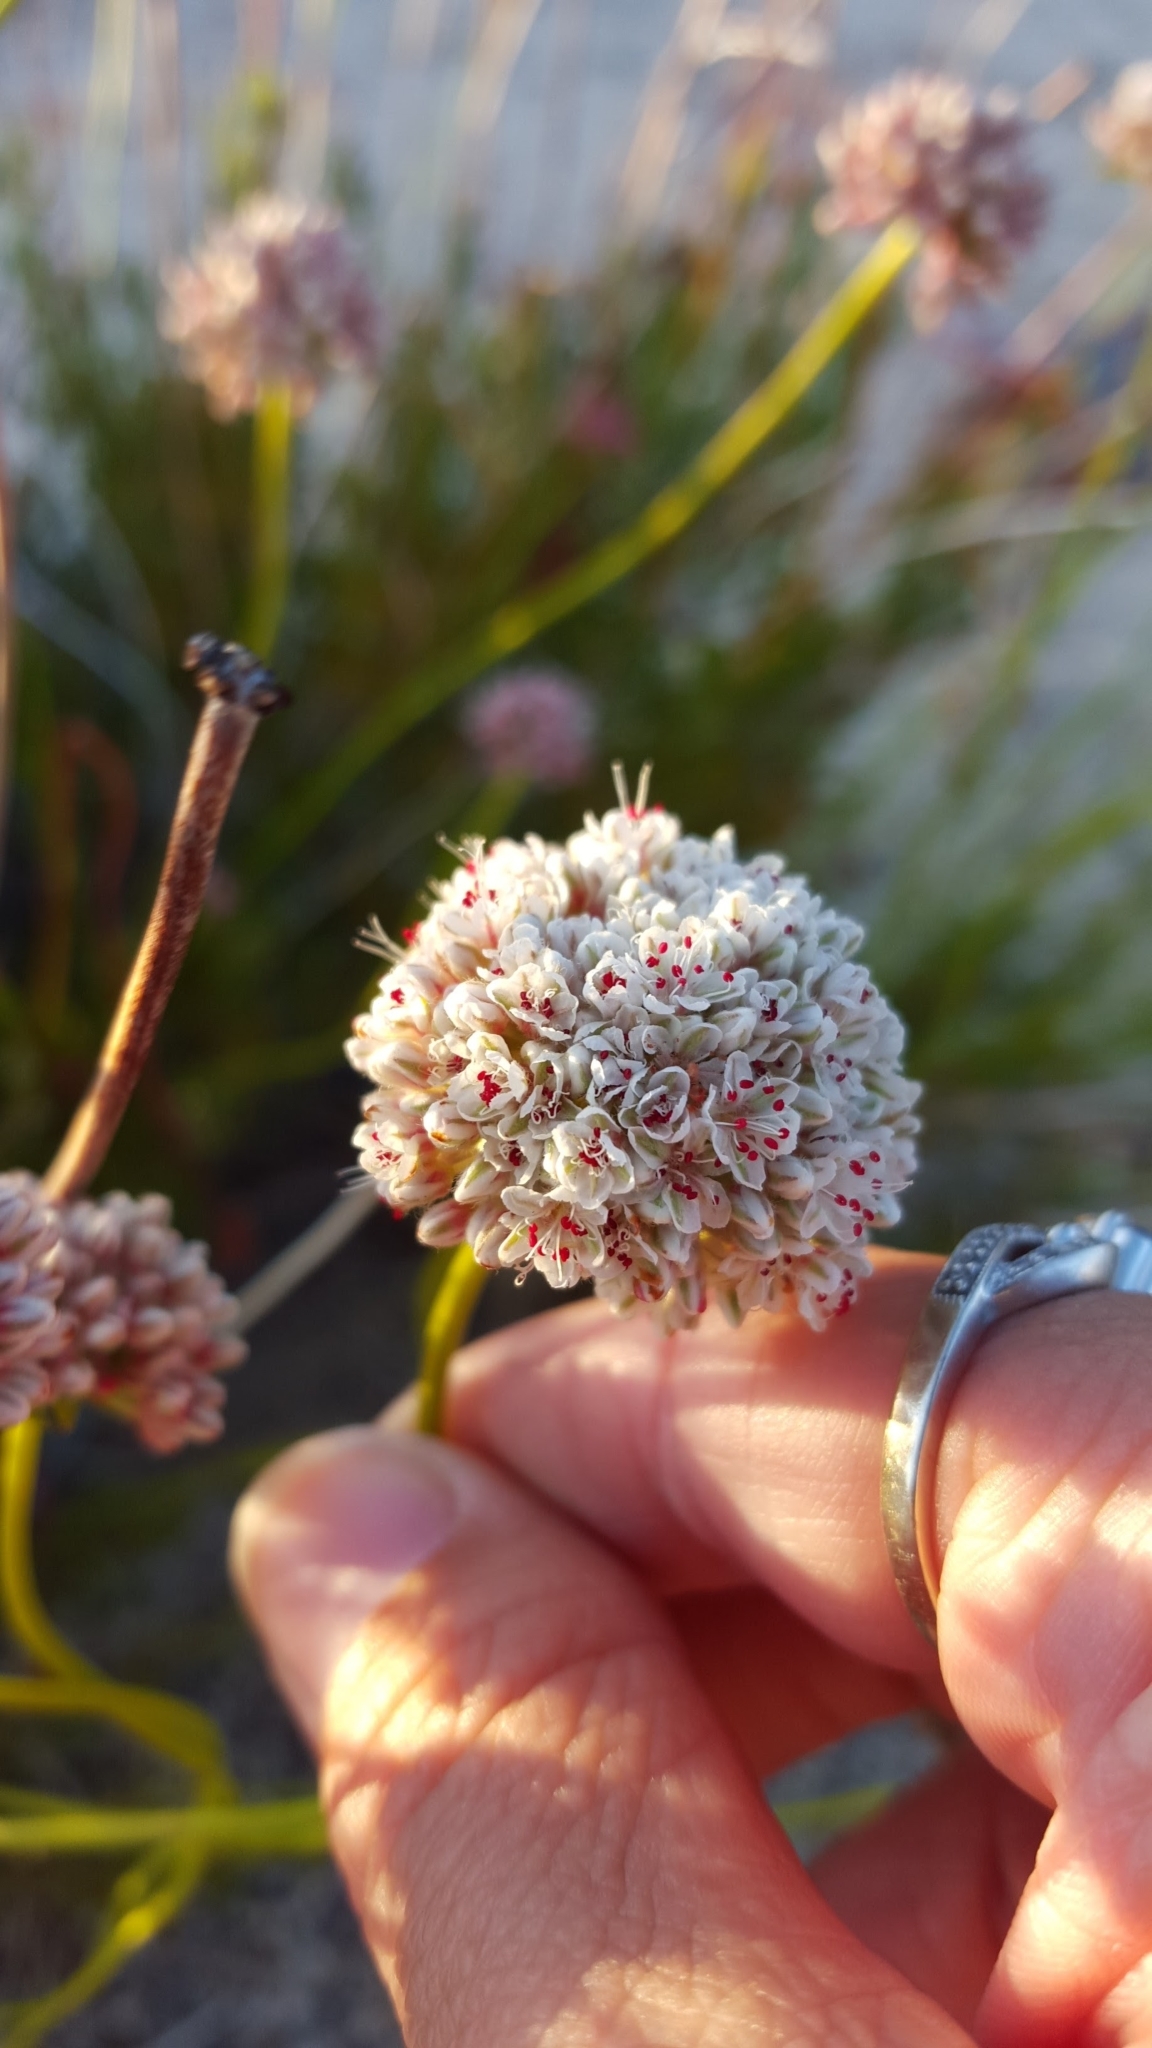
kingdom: Plantae
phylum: Tracheophyta
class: Magnoliopsida
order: Caryophyllales
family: Polygonaceae
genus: Eriogonum
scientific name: Eriogonum fasciculatum
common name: California wild buckwheat
